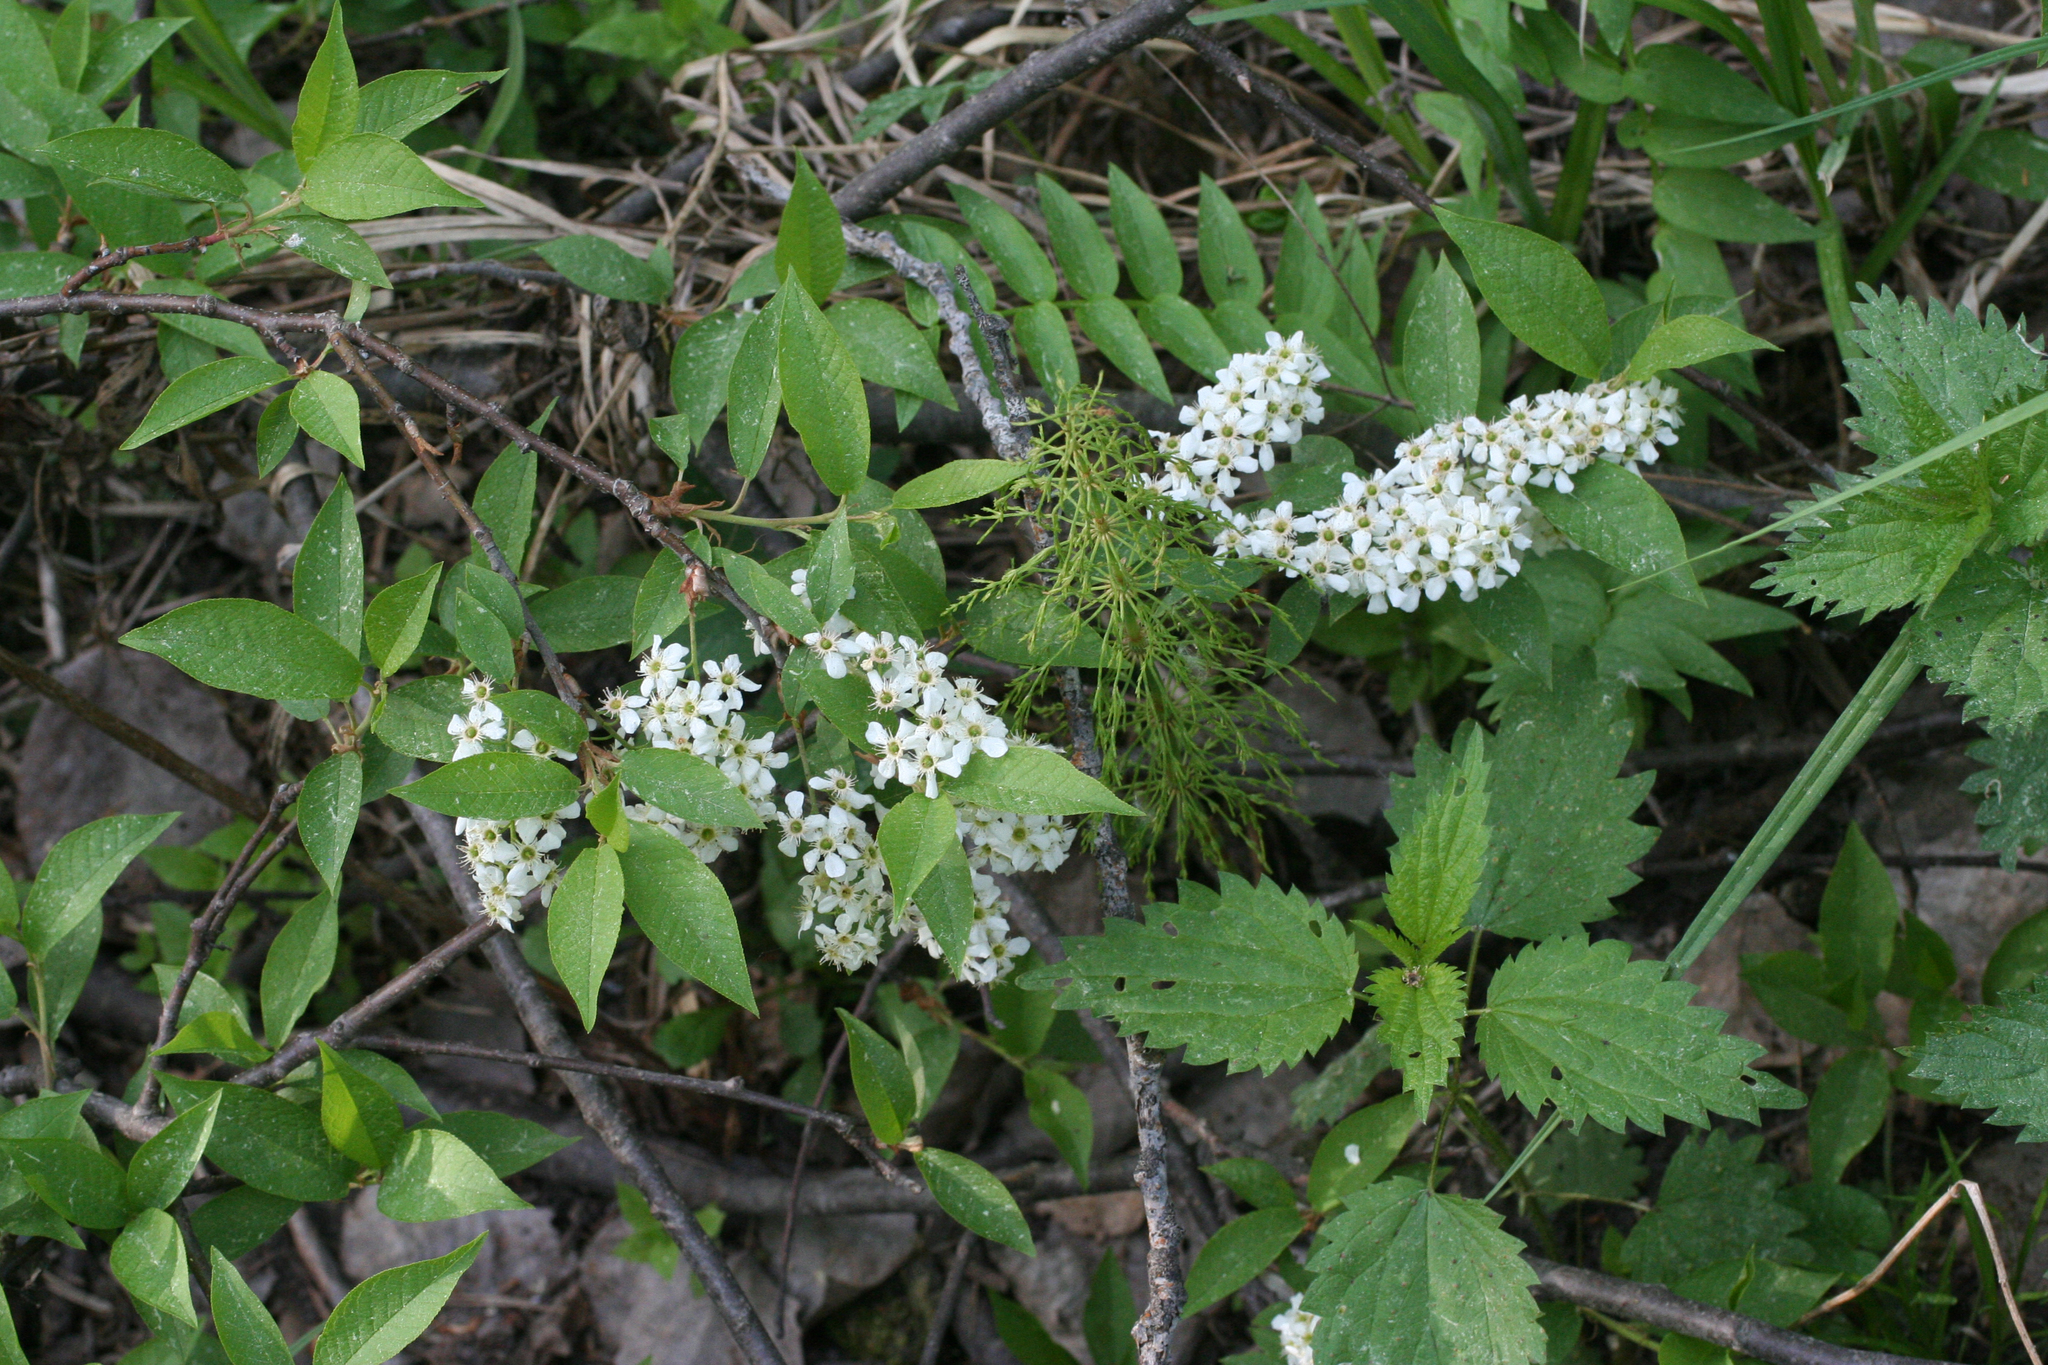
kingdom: Plantae
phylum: Tracheophyta
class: Magnoliopsida
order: Rosales
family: Rosaceae
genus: Prunus
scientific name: Prunus padus
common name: Bird cherry
